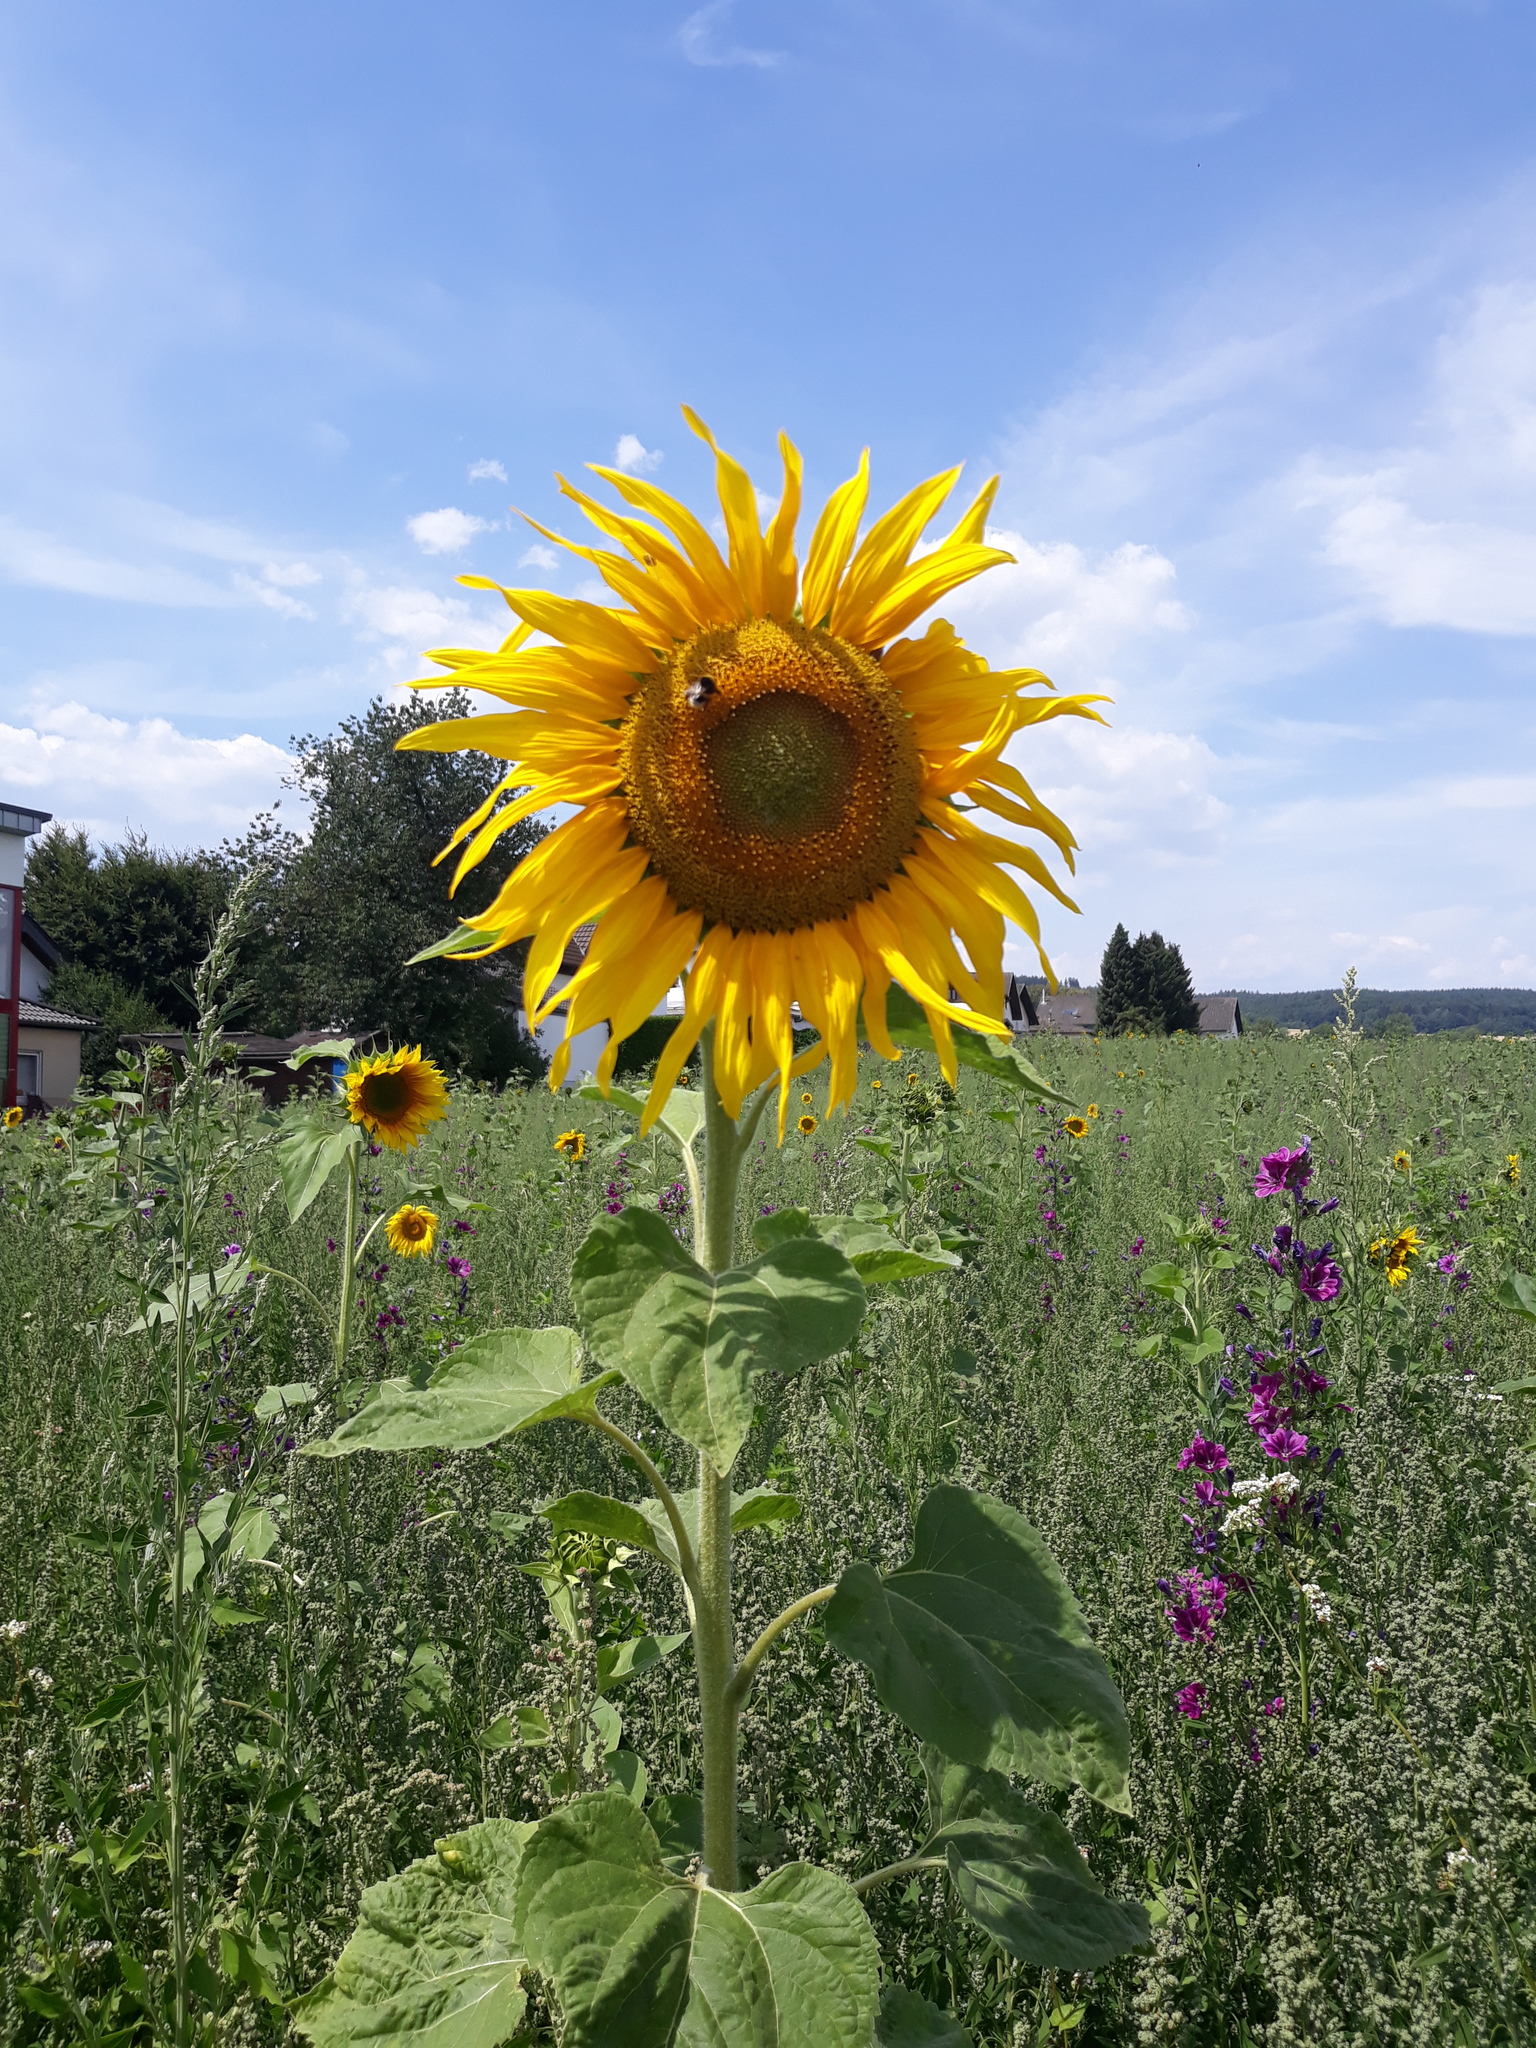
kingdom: Plantae
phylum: Tracheophyta
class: Magnoliopsida
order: Asterales
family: Asteraceae
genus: Helianthus
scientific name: Helianthus annuus
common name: Sunflower
